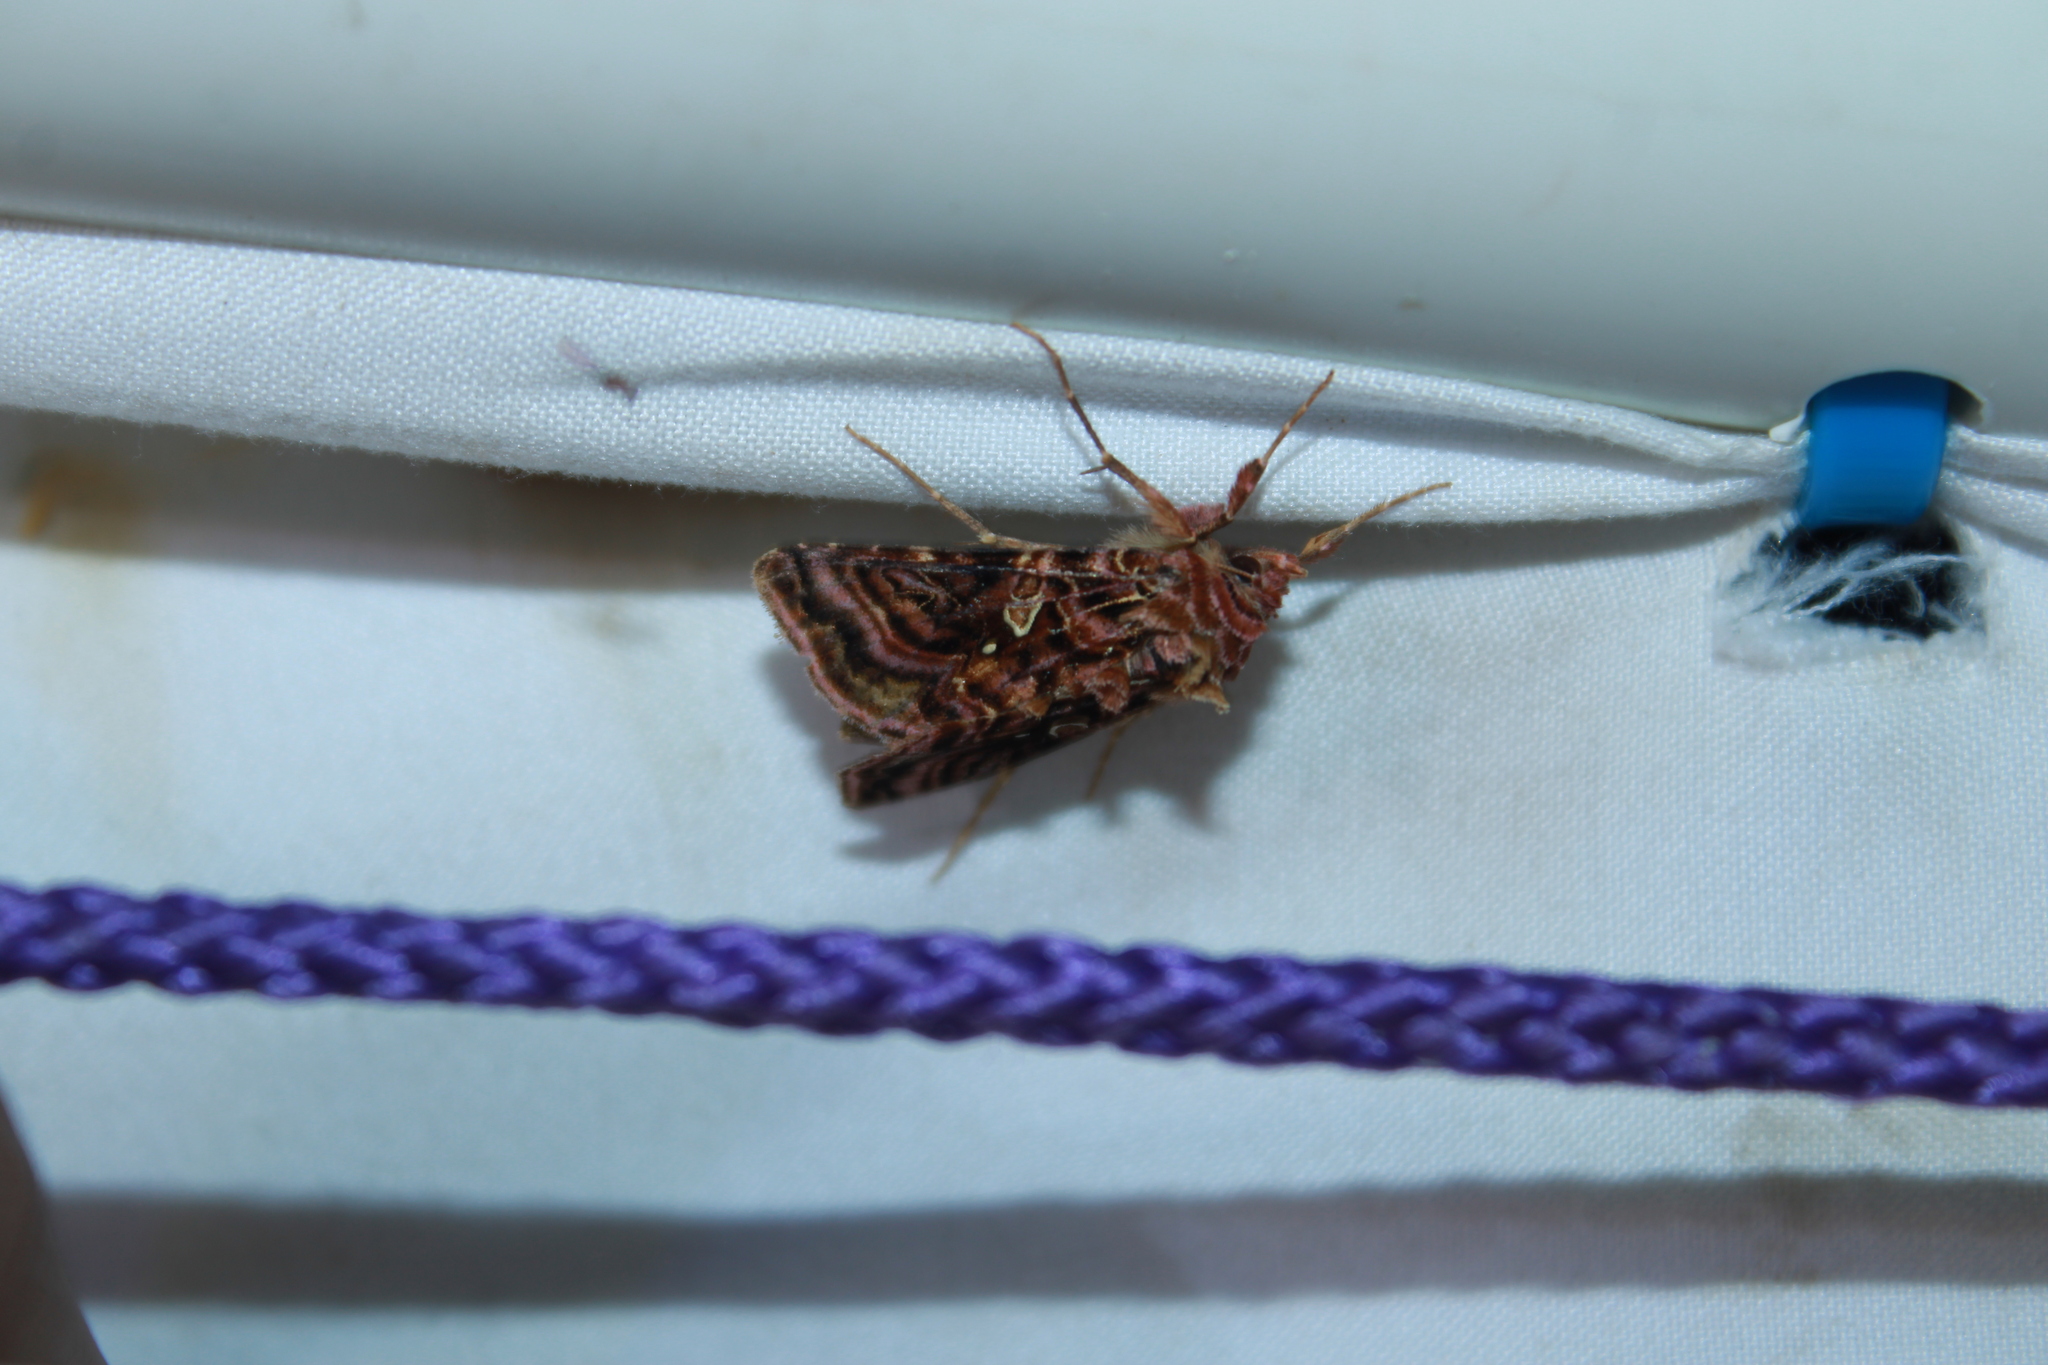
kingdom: Animalia
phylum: Arthropoda
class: Insecta
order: Lepidoptera
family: Noctuidae
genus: Autographa
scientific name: Autographa mappa
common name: Wavy chestnut y moth
